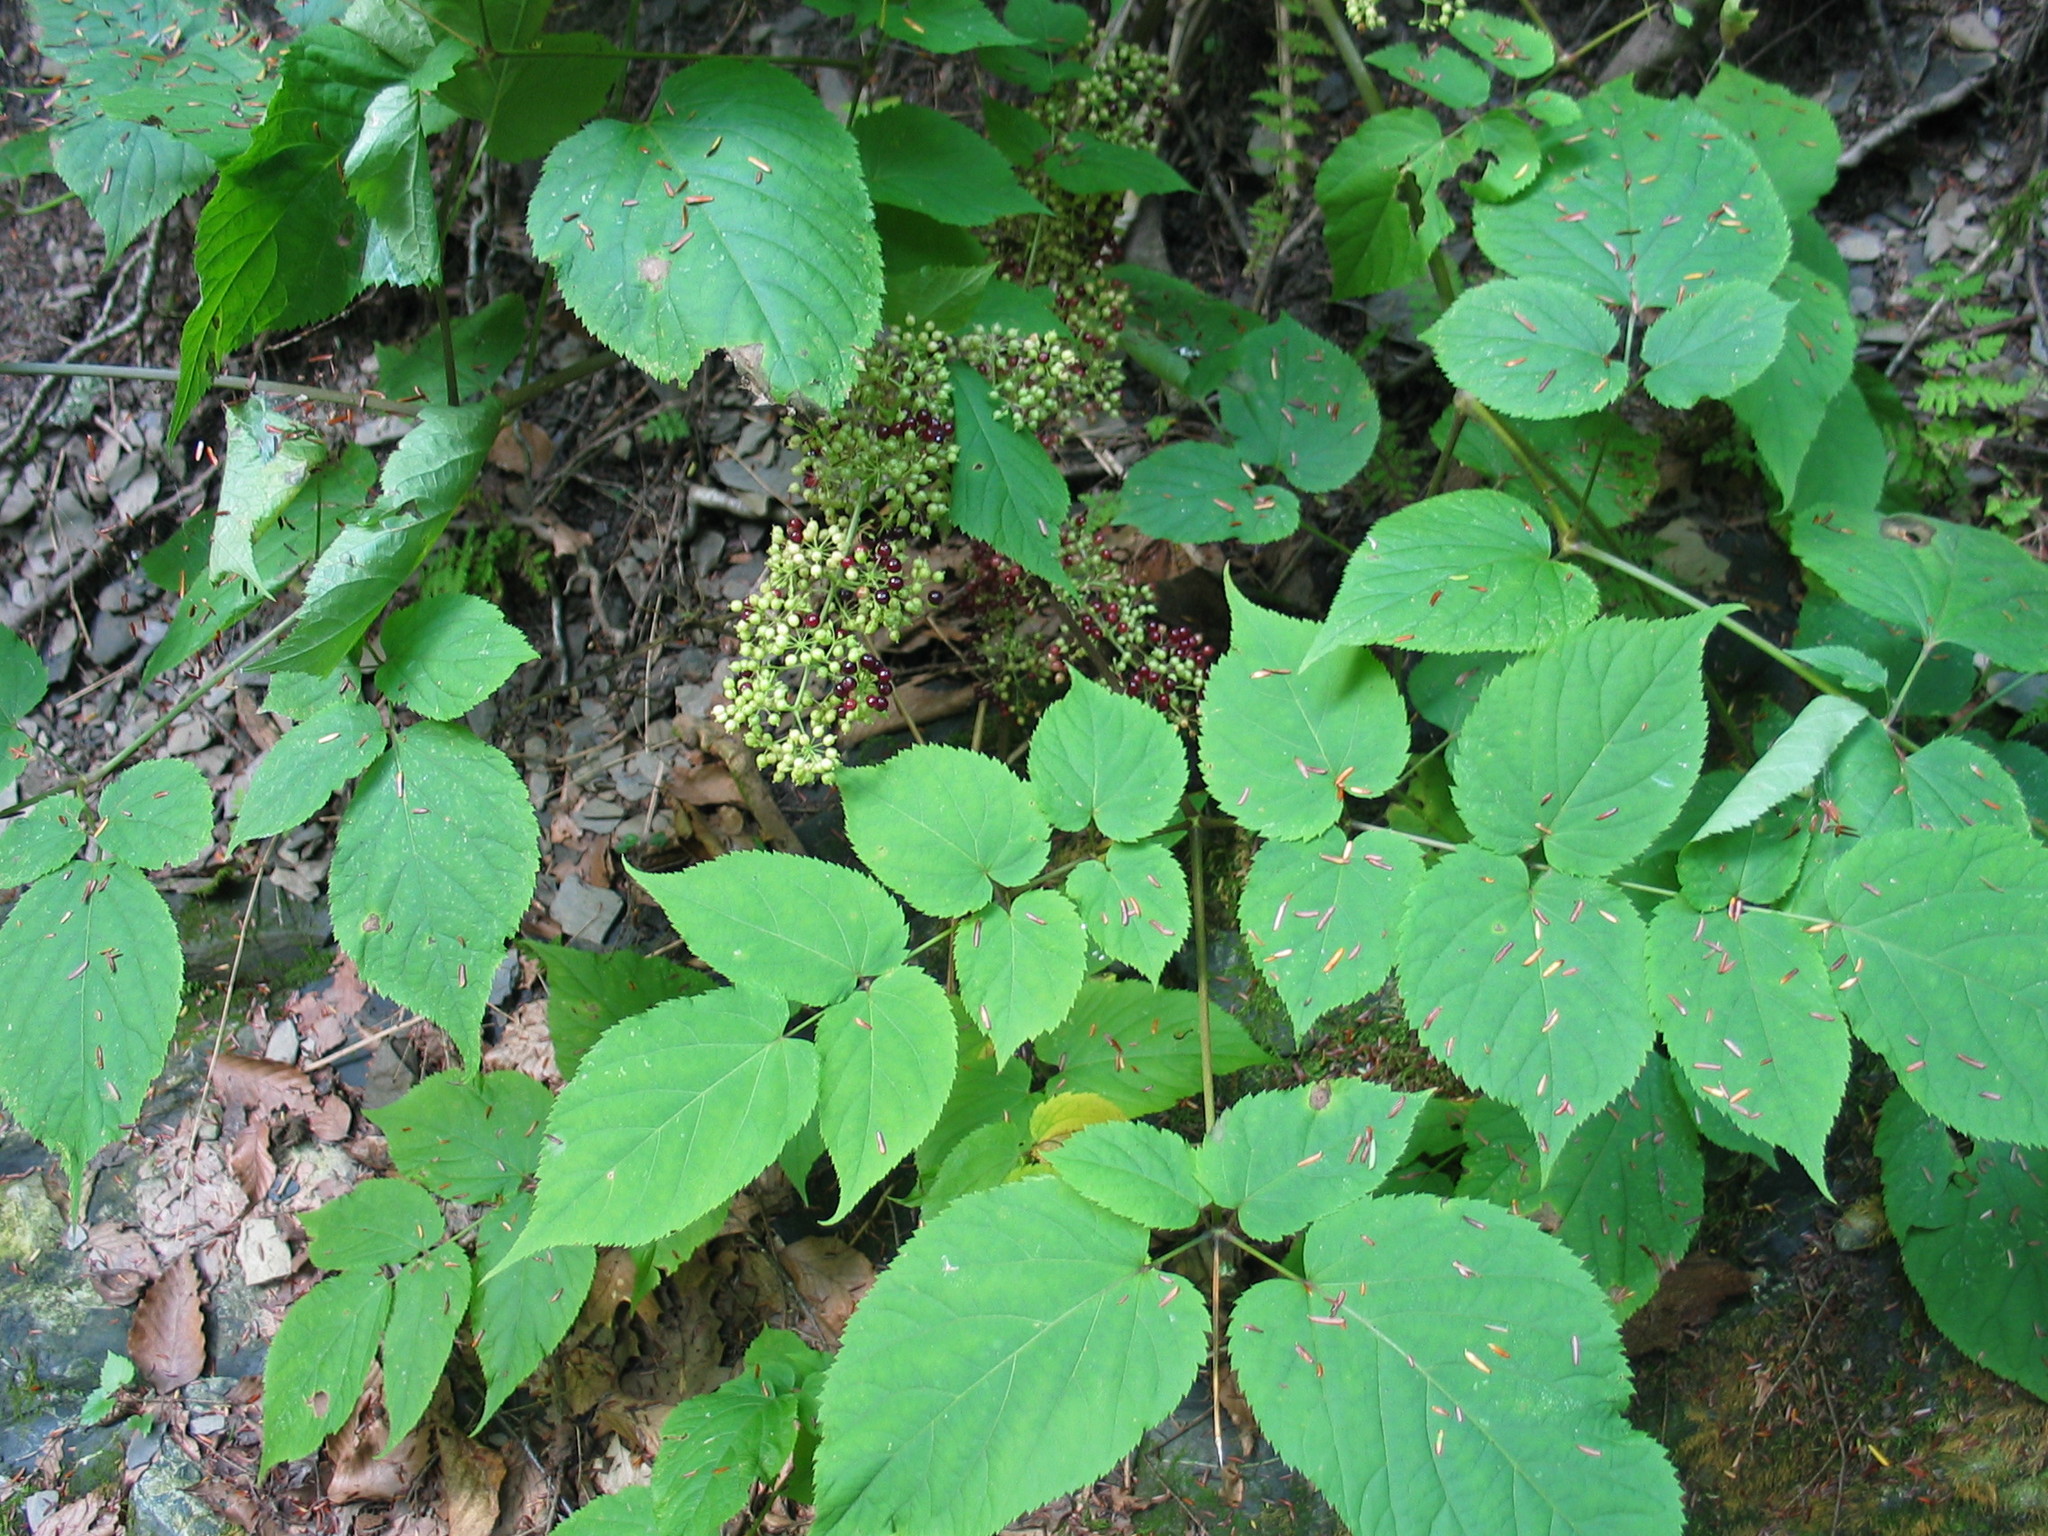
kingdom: Plantae
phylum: Tracheophyta
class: Magnoliopsida
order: Apiales
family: Araliaceae
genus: Aralia
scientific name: Aralia racemosa
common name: American-spikenard
